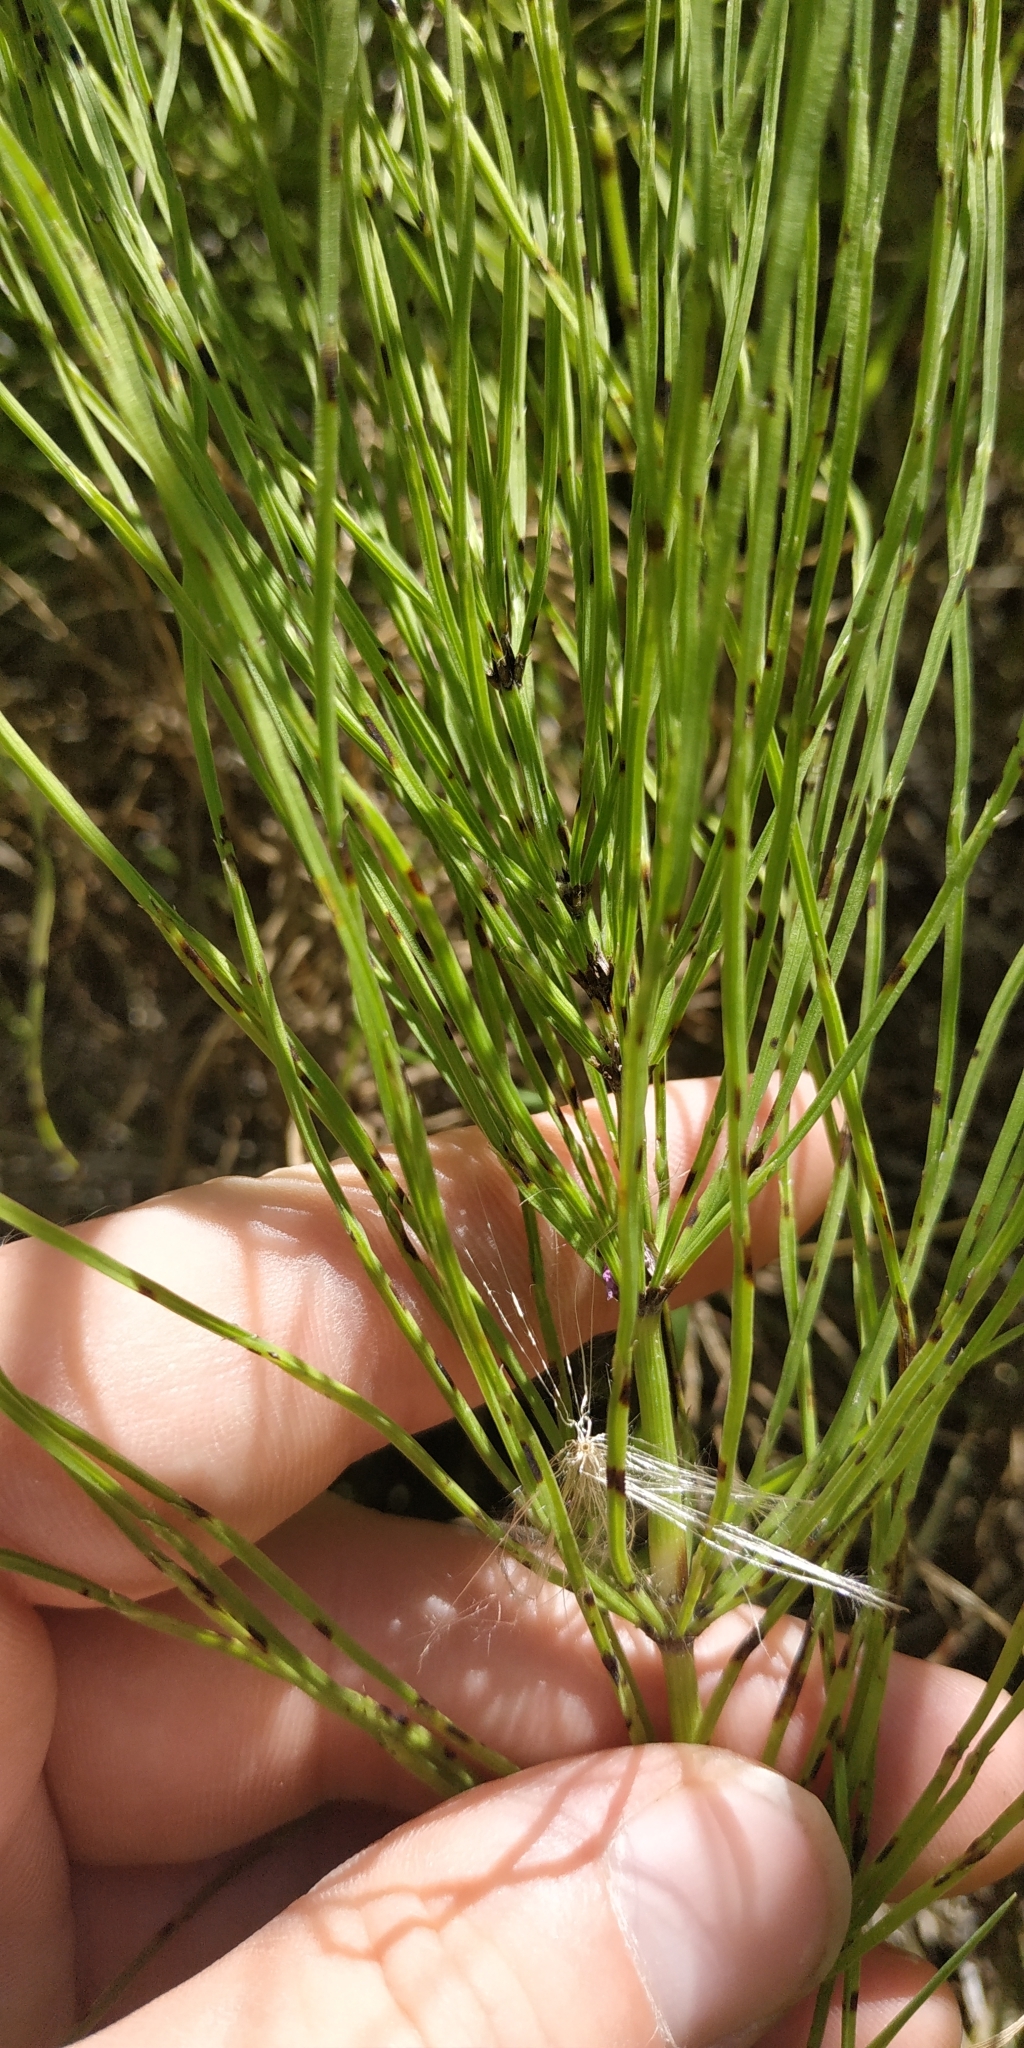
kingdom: Plantae
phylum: Tracheophyta
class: Polypodiopsida
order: Equisetales
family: Equisetaceae
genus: Equisetum
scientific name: Equisetum arvense
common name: Field horsetail
